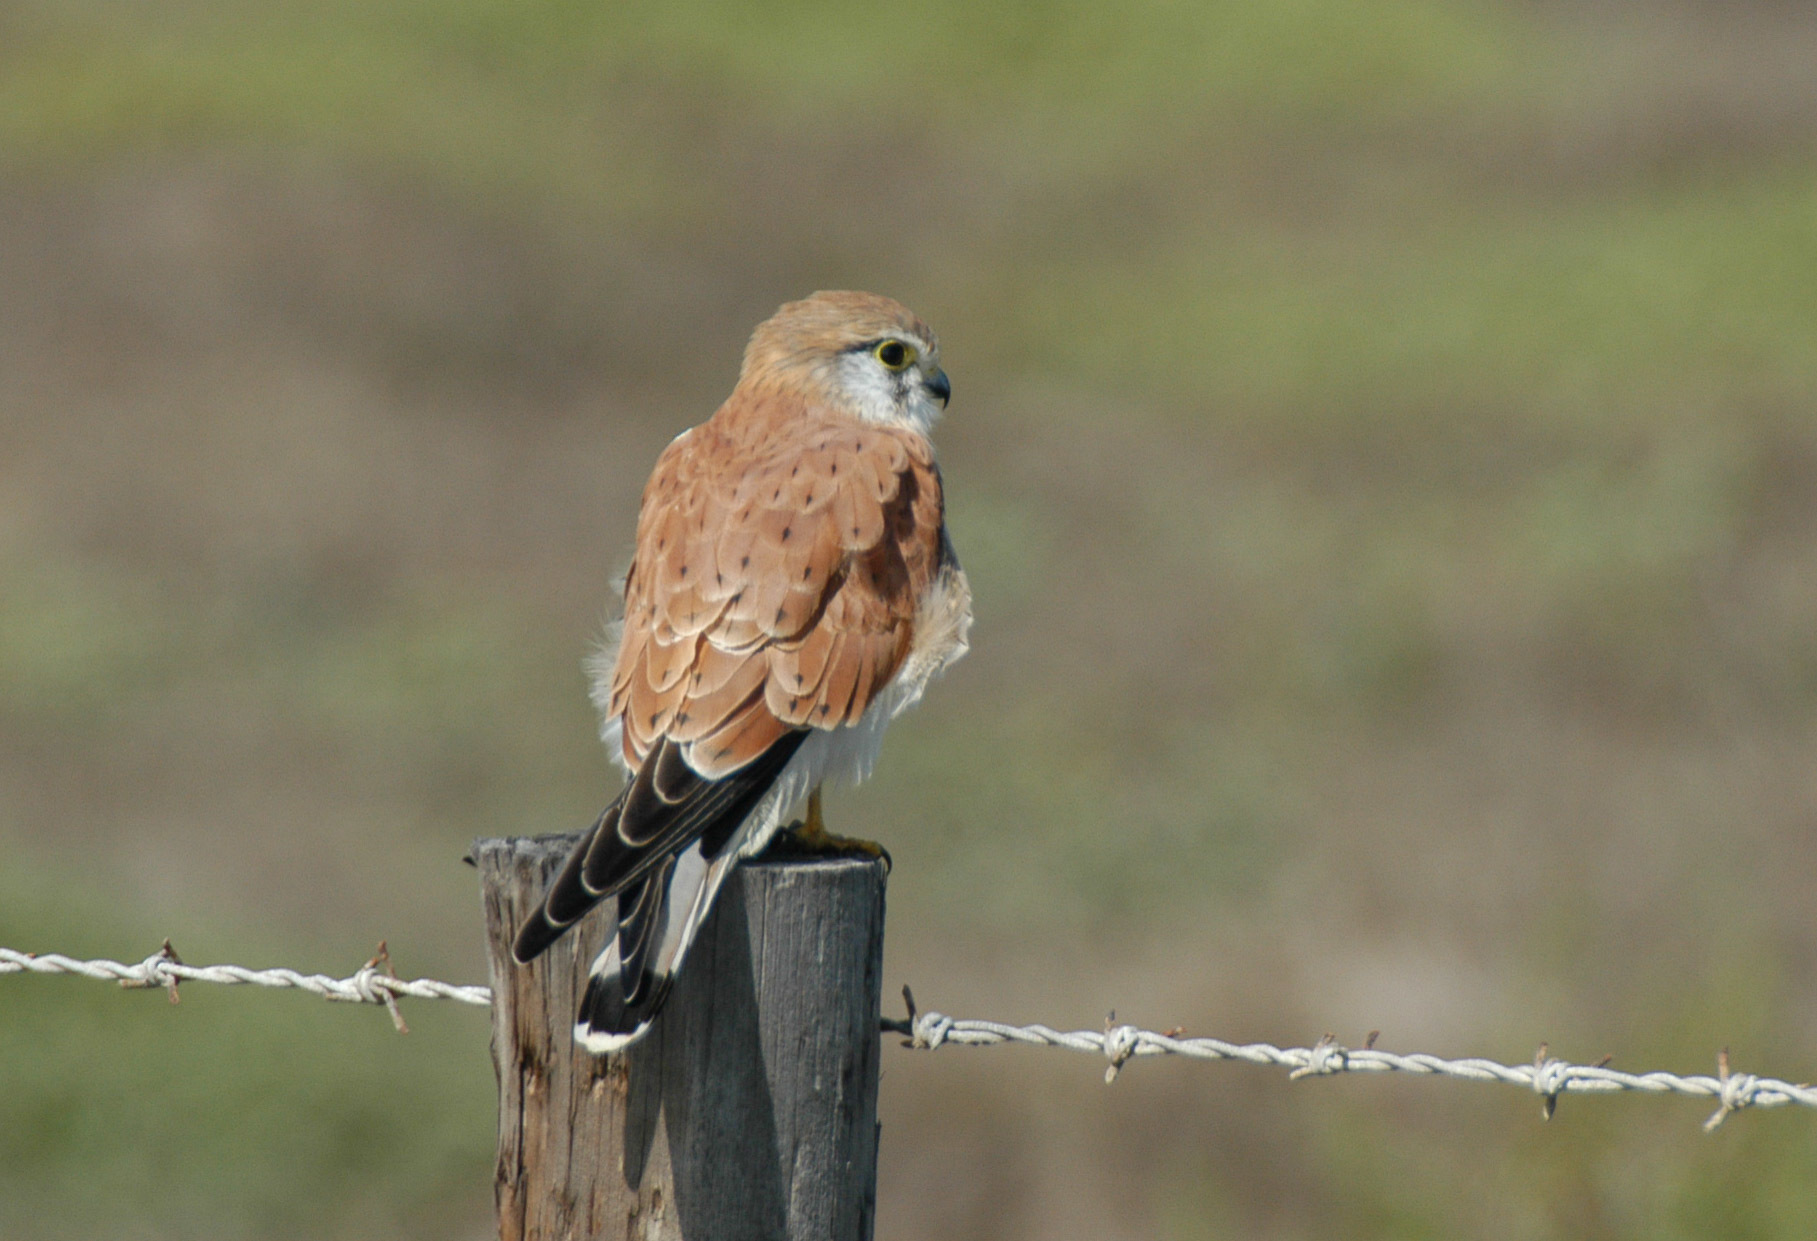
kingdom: Animalia
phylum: Chordata
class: Aves
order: Falconiformes
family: Falconidae
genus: Falco
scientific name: Falco cenchroides
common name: Nankeen kestrel
